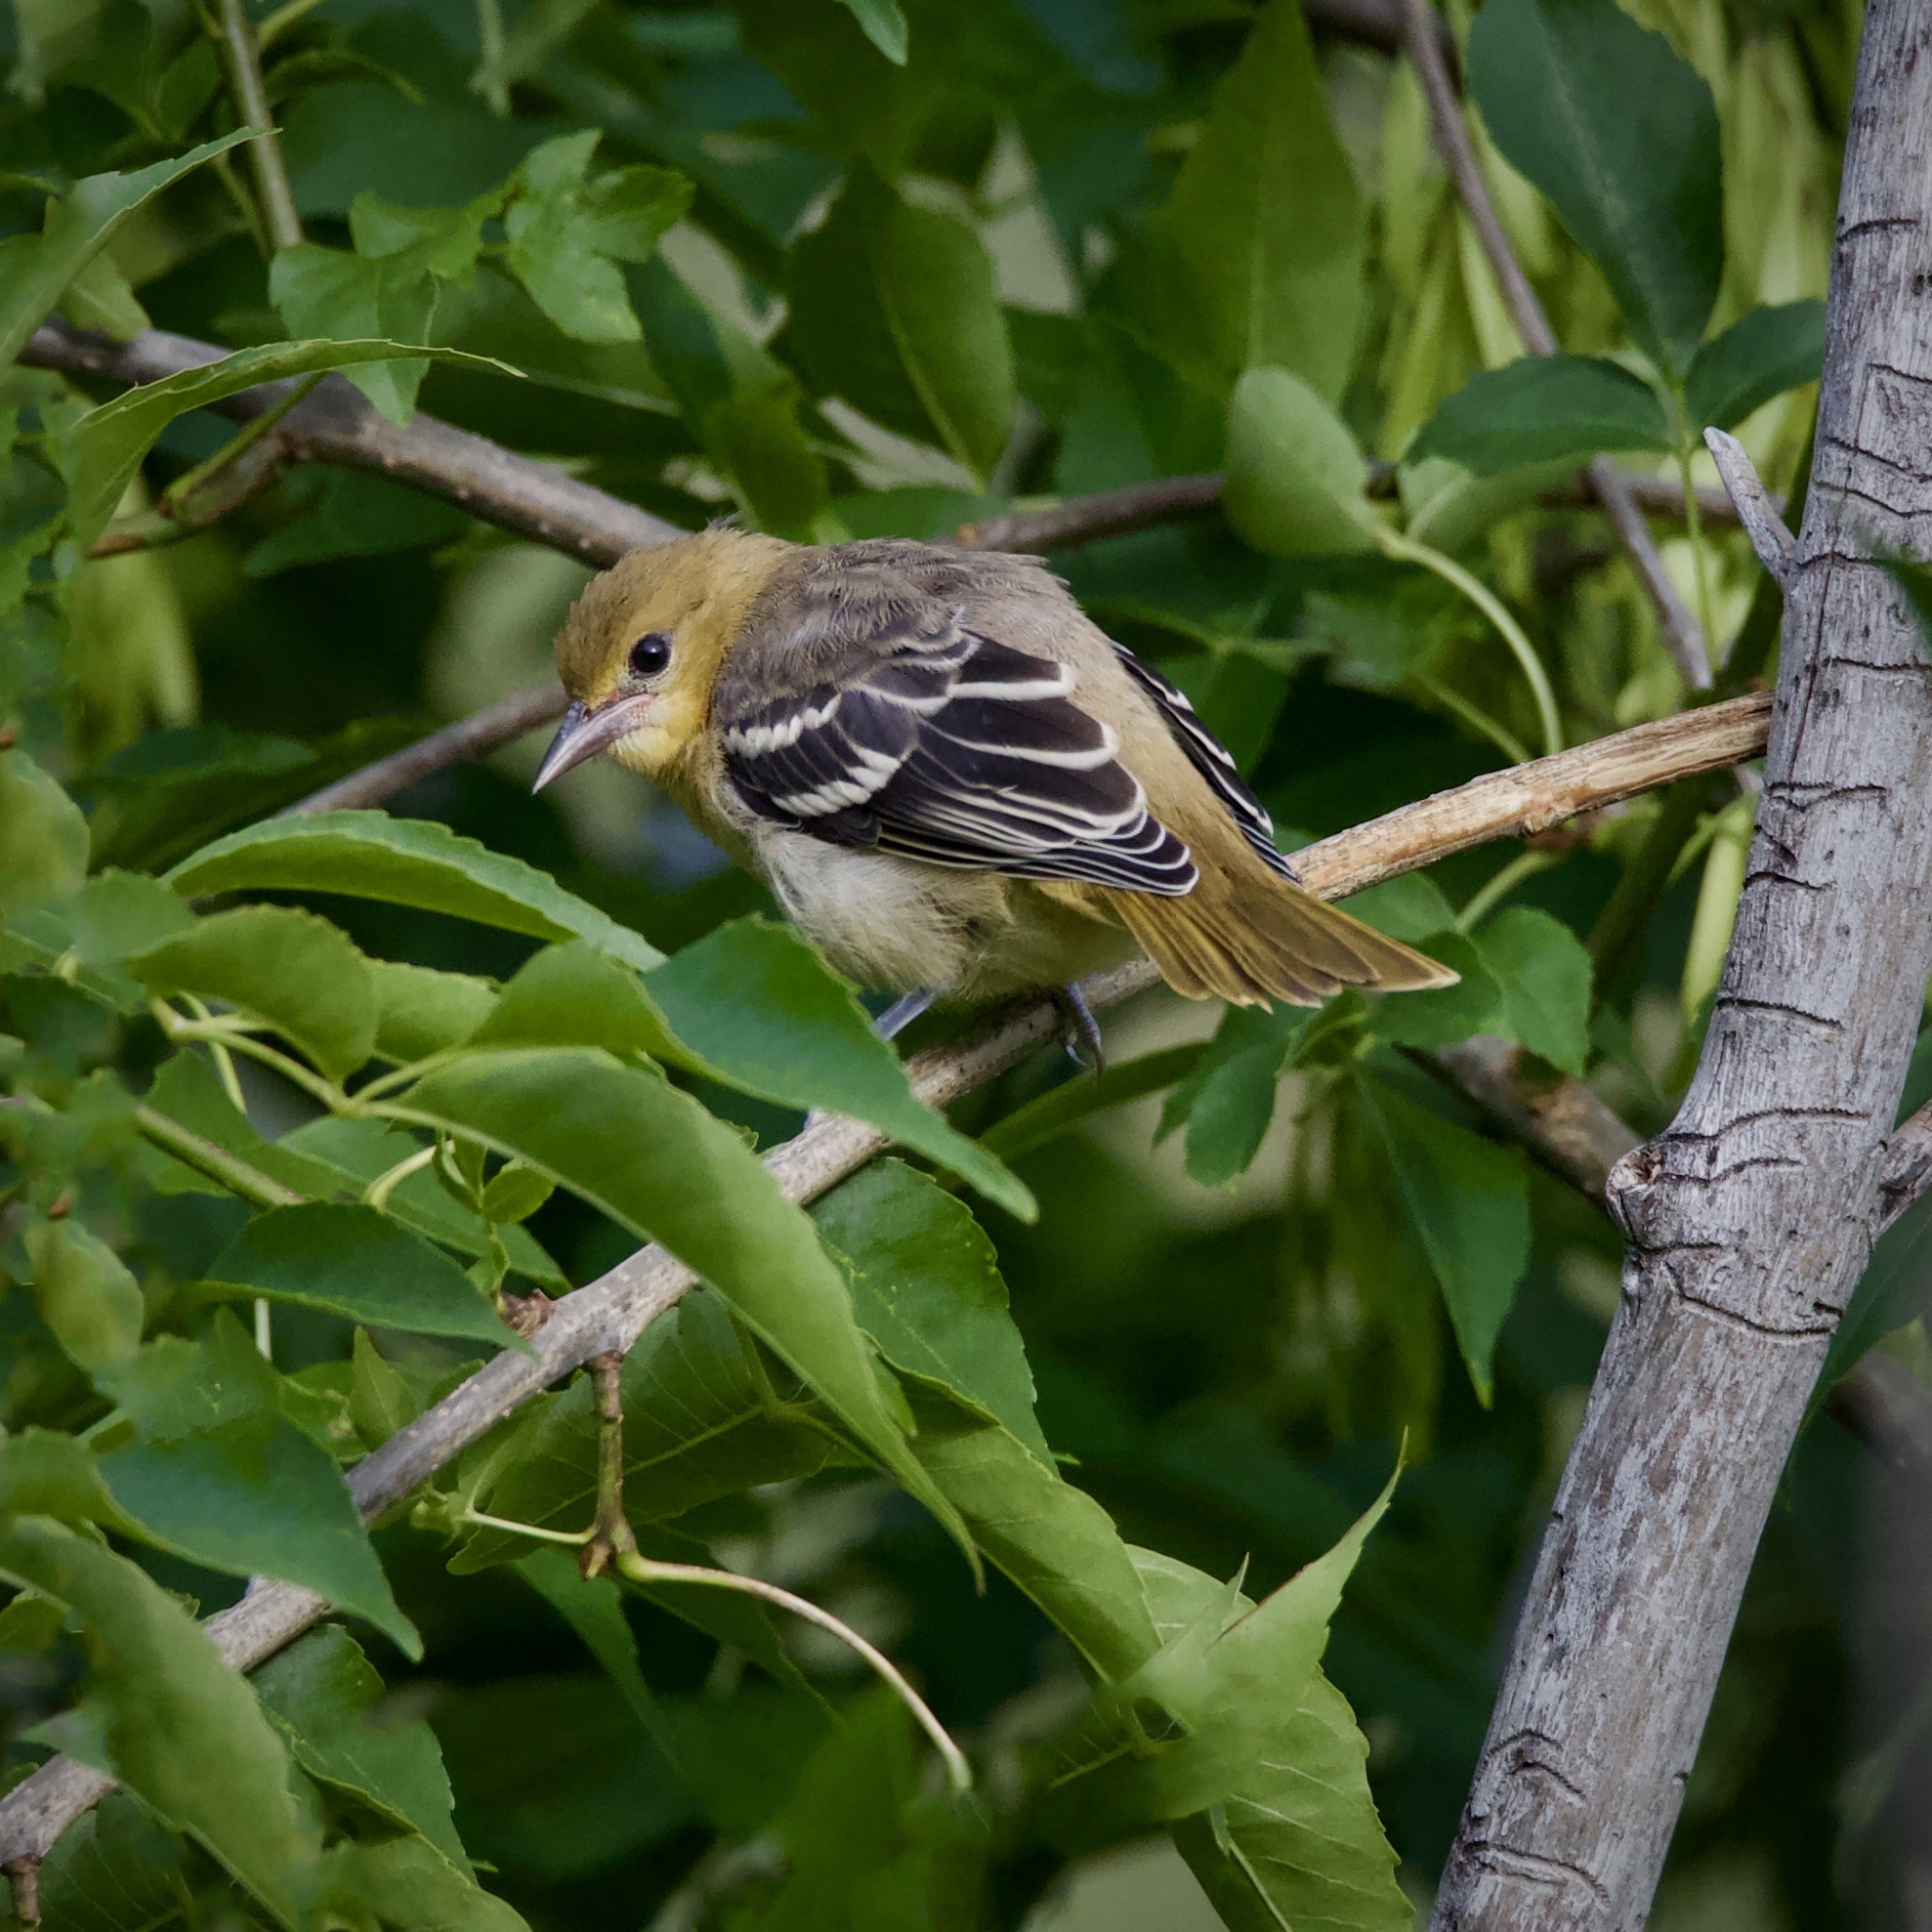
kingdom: Animalia
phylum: Chordata
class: Aves
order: Passeriformes
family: Icteridae
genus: Icterus
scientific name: Icterus galbula
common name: Baltimore oriole
